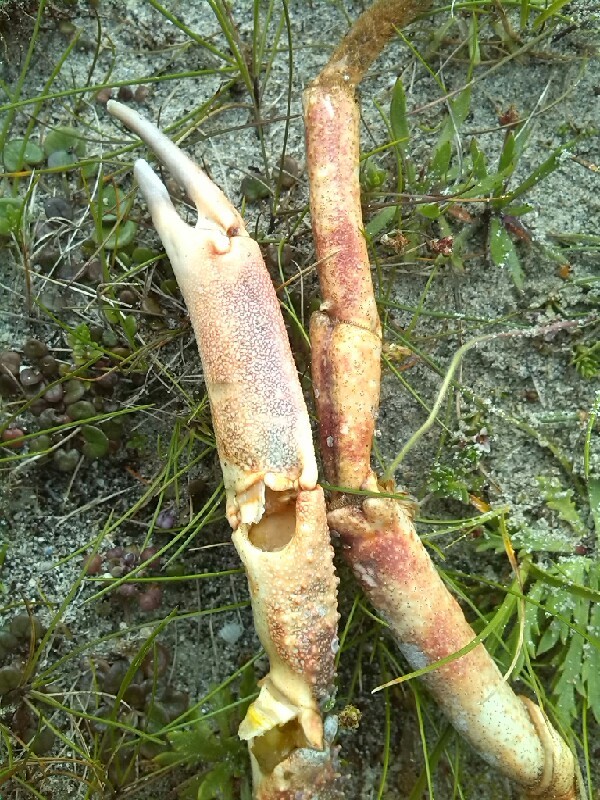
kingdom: Animalia
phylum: Arthropoda
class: Malacostraca
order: Decapoda
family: Majidae
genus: Maja
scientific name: Maja brachydactyla
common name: Common spider crab
